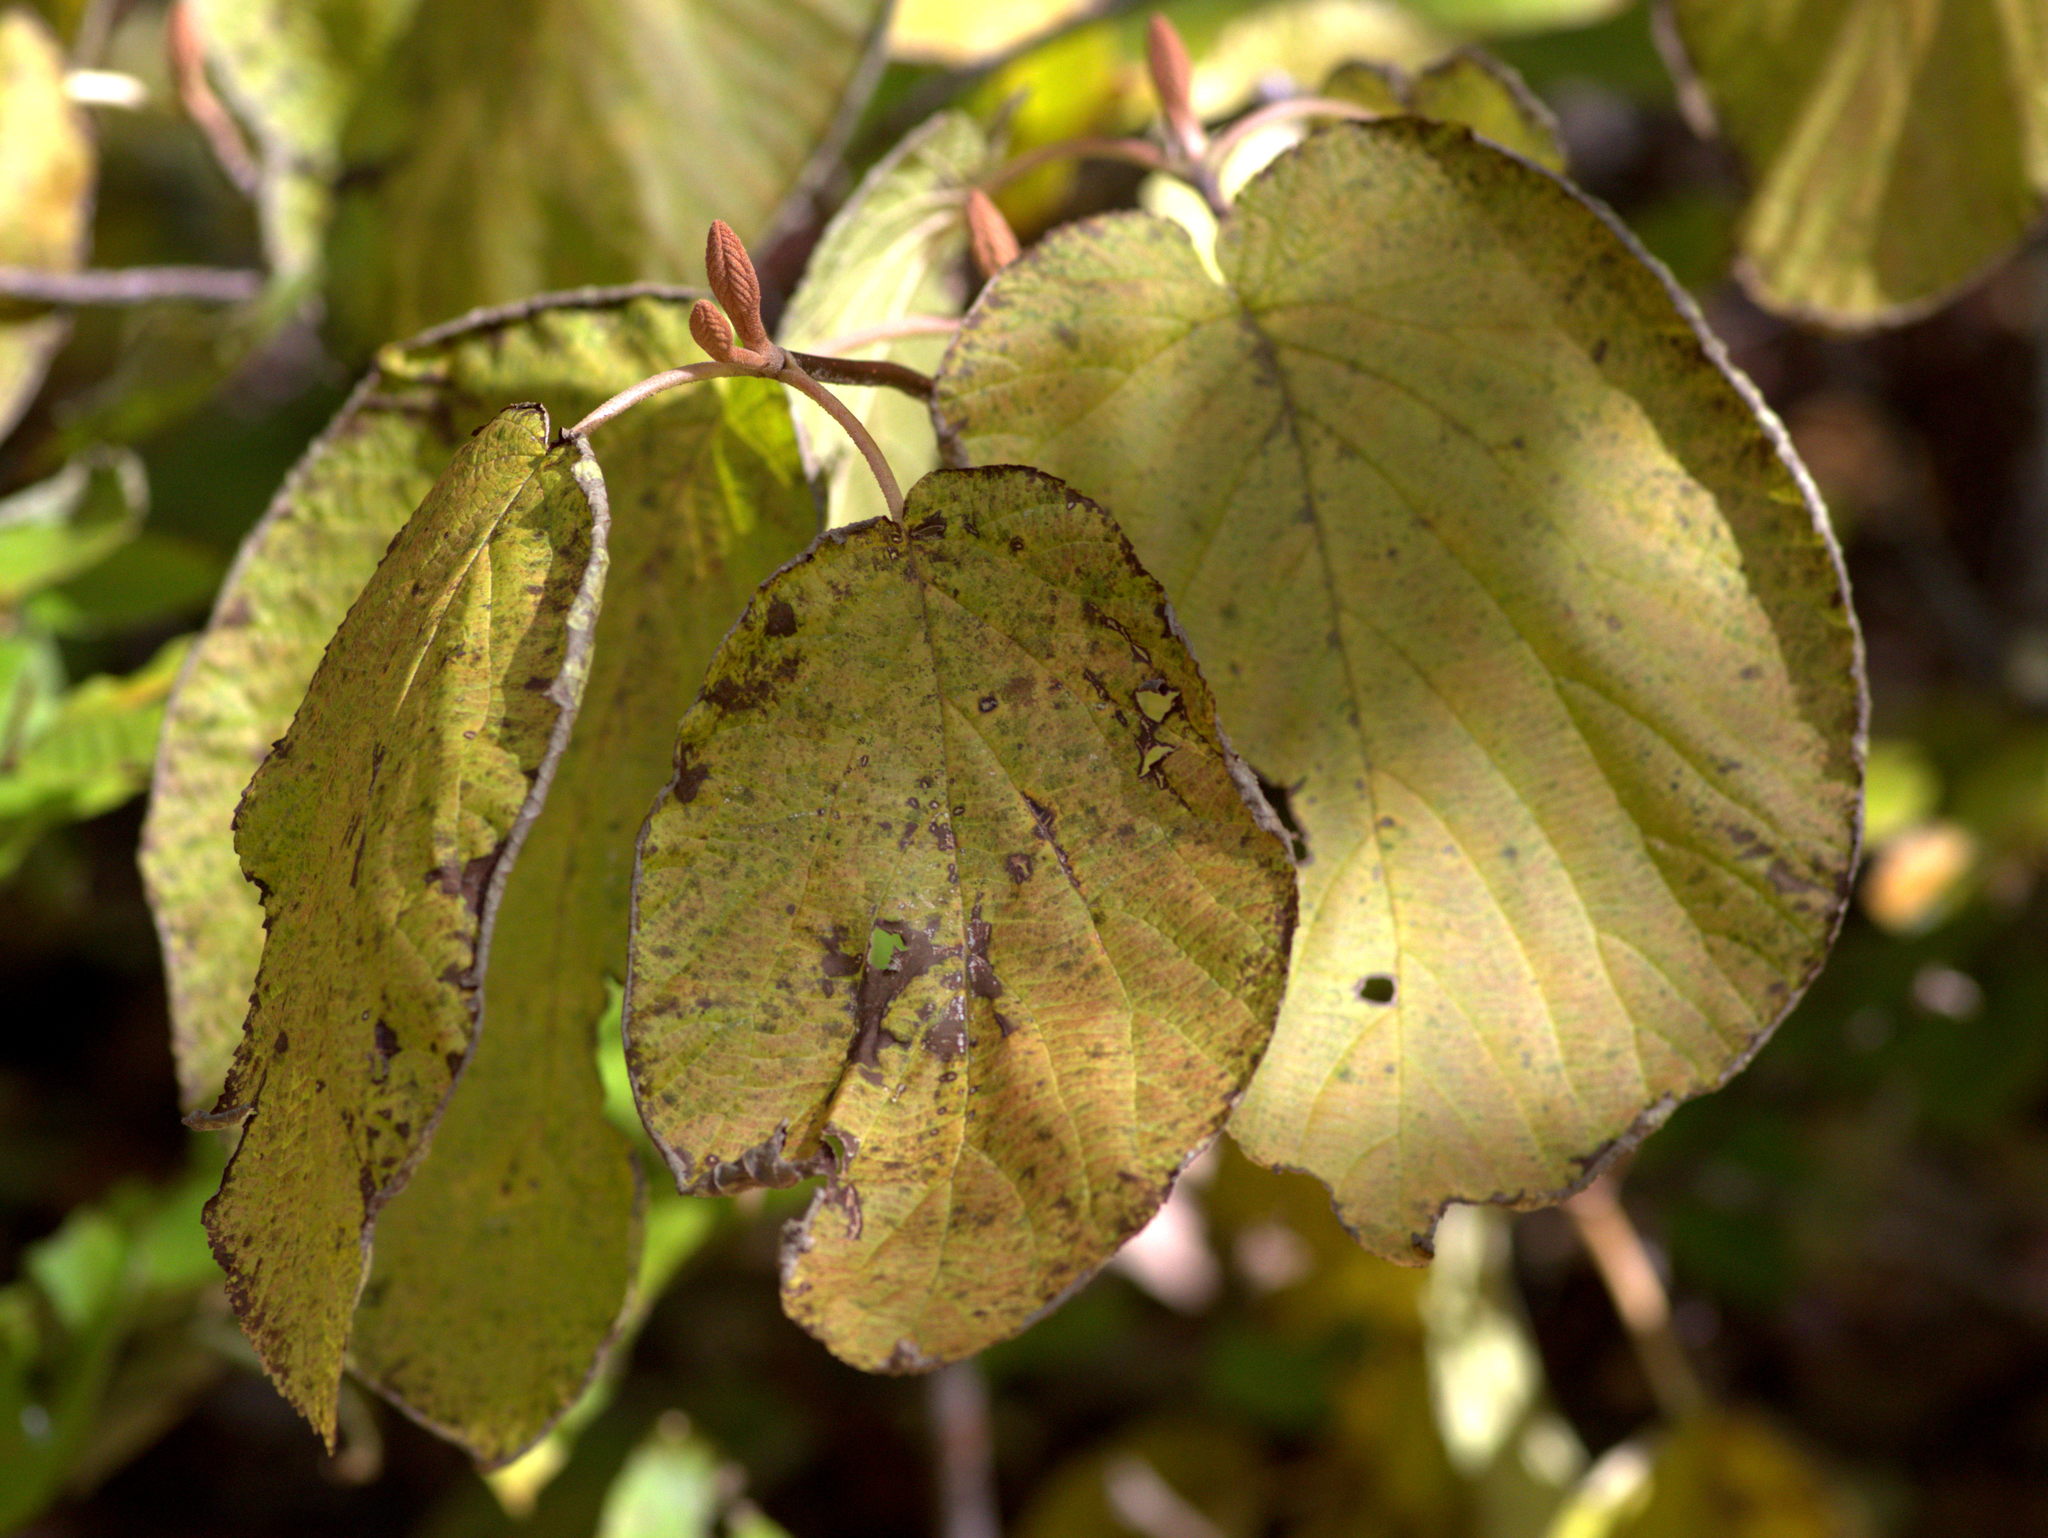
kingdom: Plantae
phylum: Tracheophyta
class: Magnoliopsida
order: Dipsacales
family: Viburnaceae
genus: Viburnum
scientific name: Viburnum lantanoides
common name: Hobblebush
